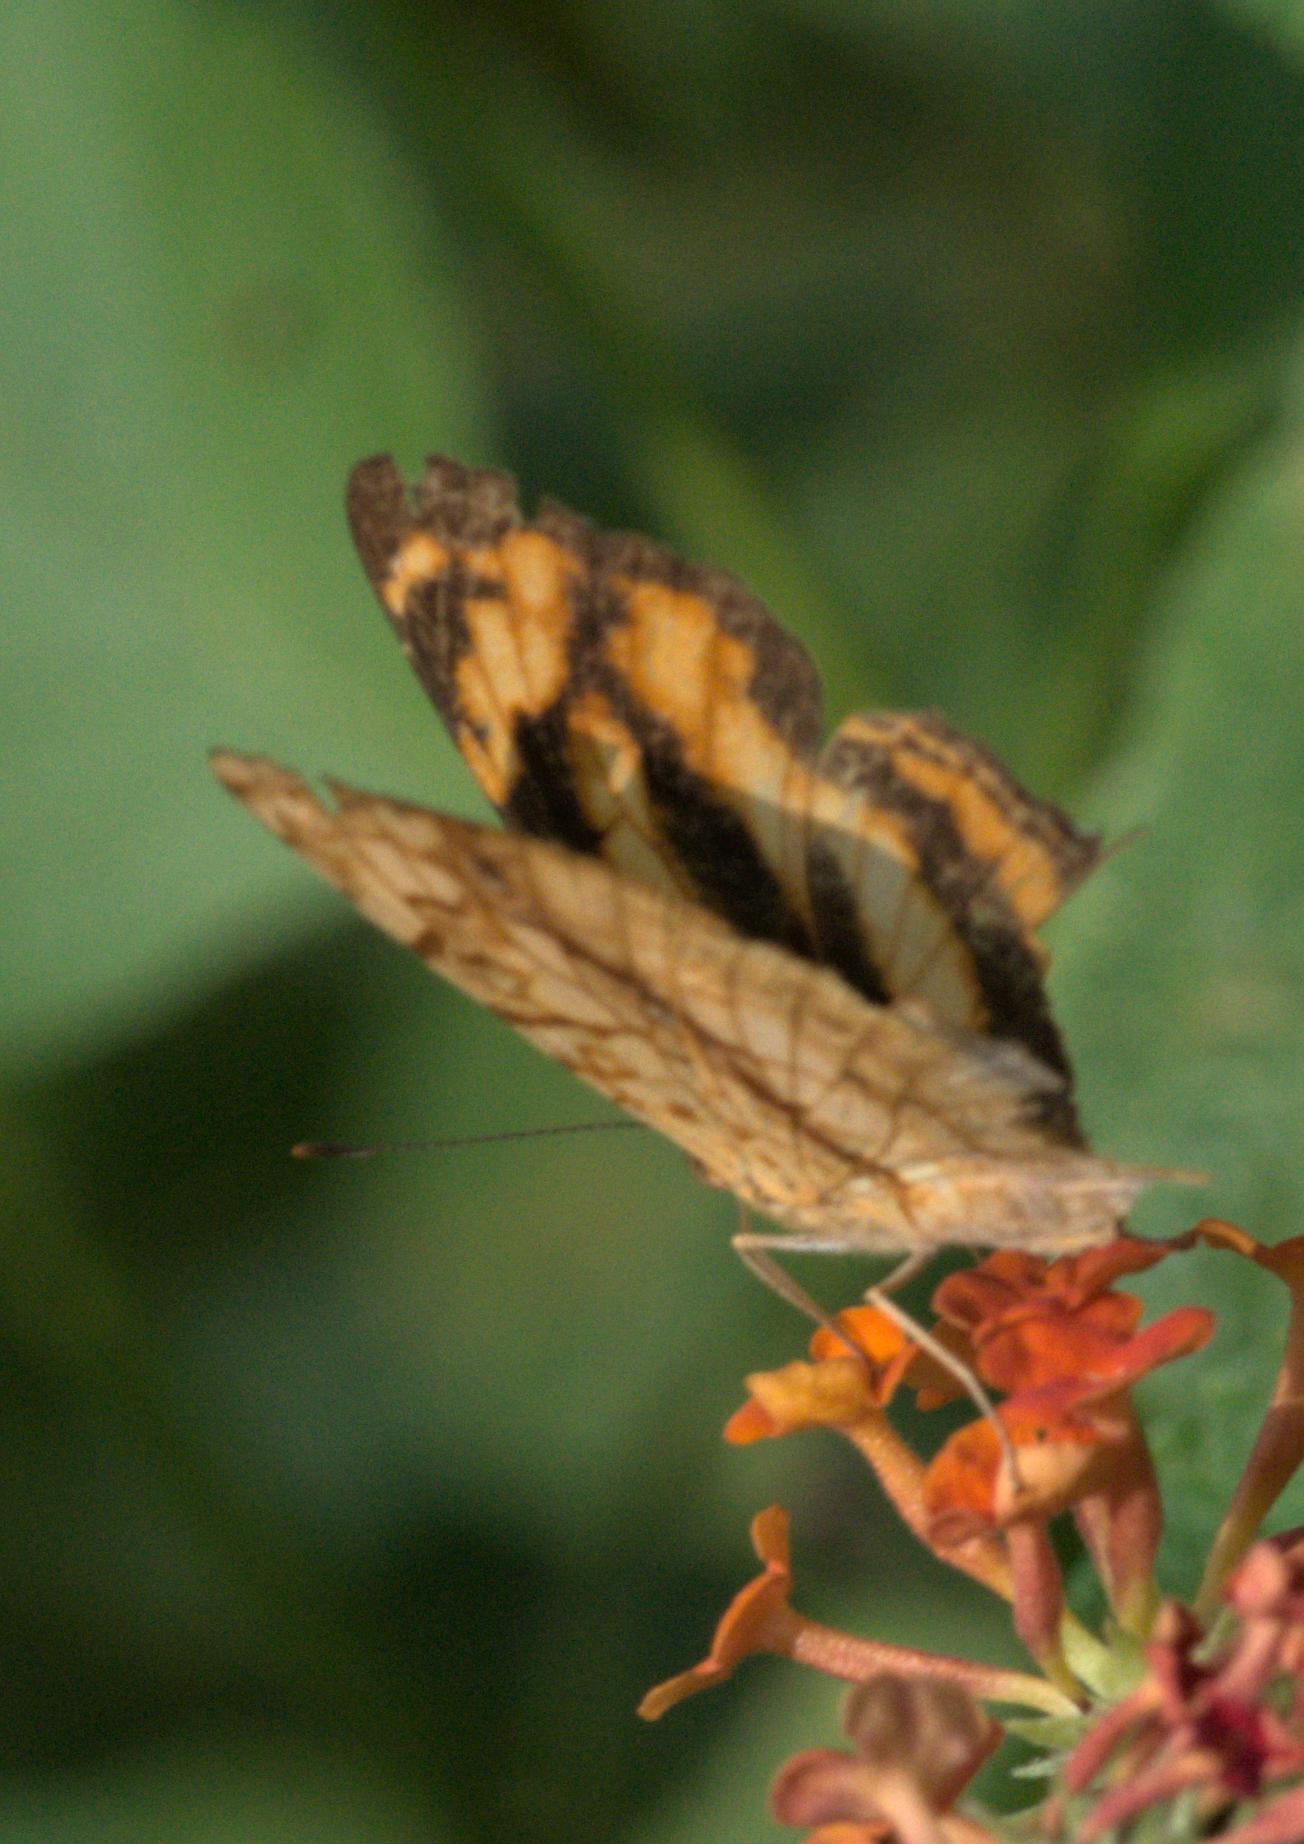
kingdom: Animalia
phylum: Arthropoda
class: Insecta
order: Lepidoptera
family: Nymphalidae
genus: Symbrenthia
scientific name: Symbrenthia hypselis
